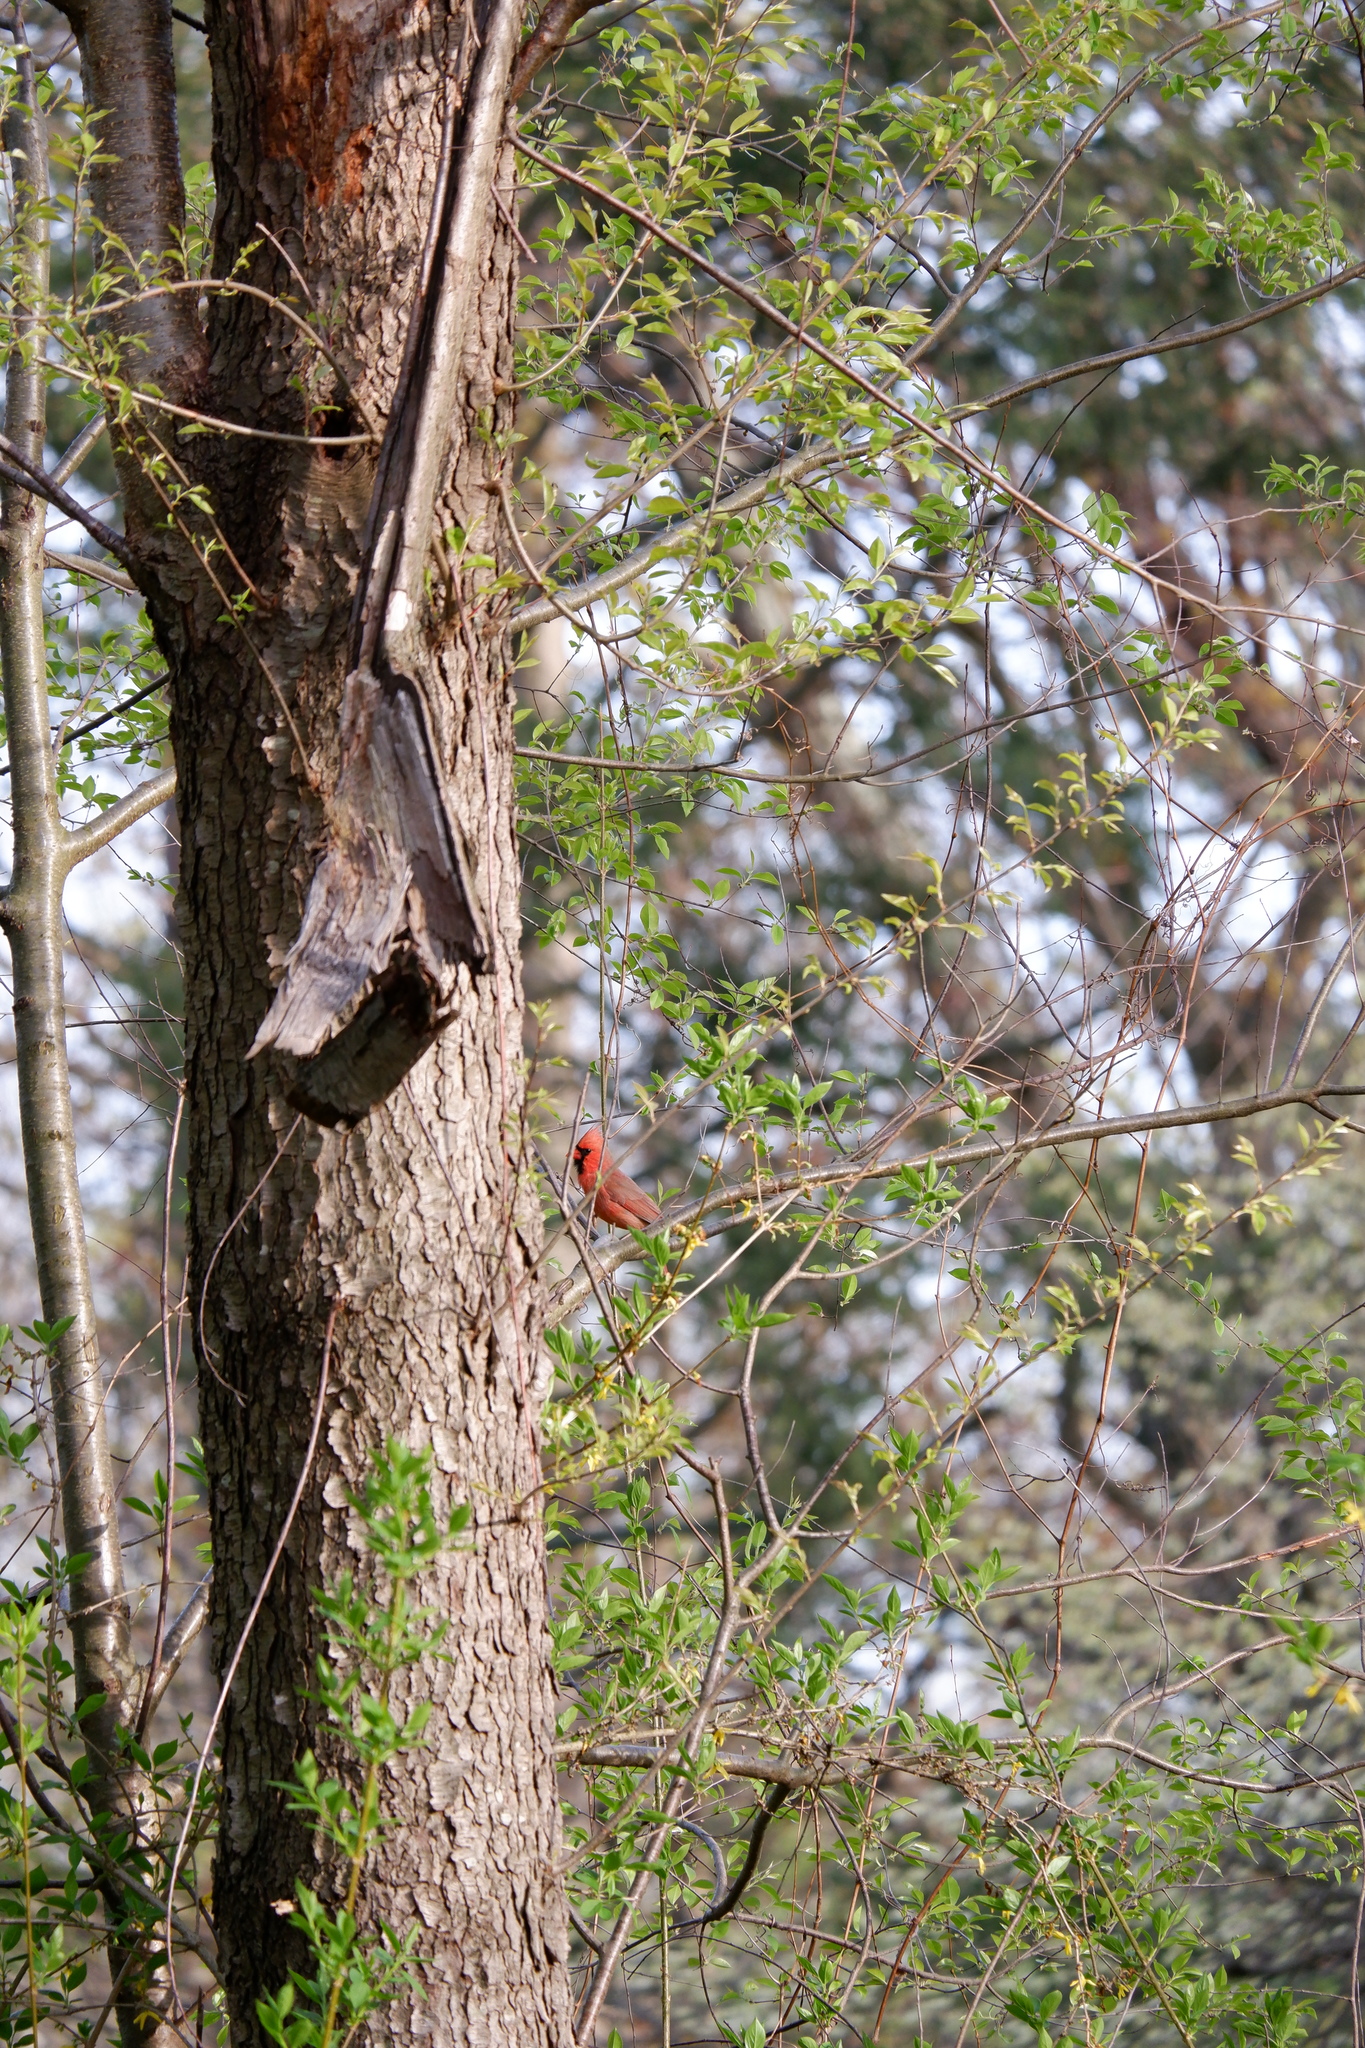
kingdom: Animalia
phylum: Chordata
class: Aves
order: Passeriformes
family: Cardinalidae
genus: Cardinalis
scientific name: Cardinalis cardinalis
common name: Northern cardinal
